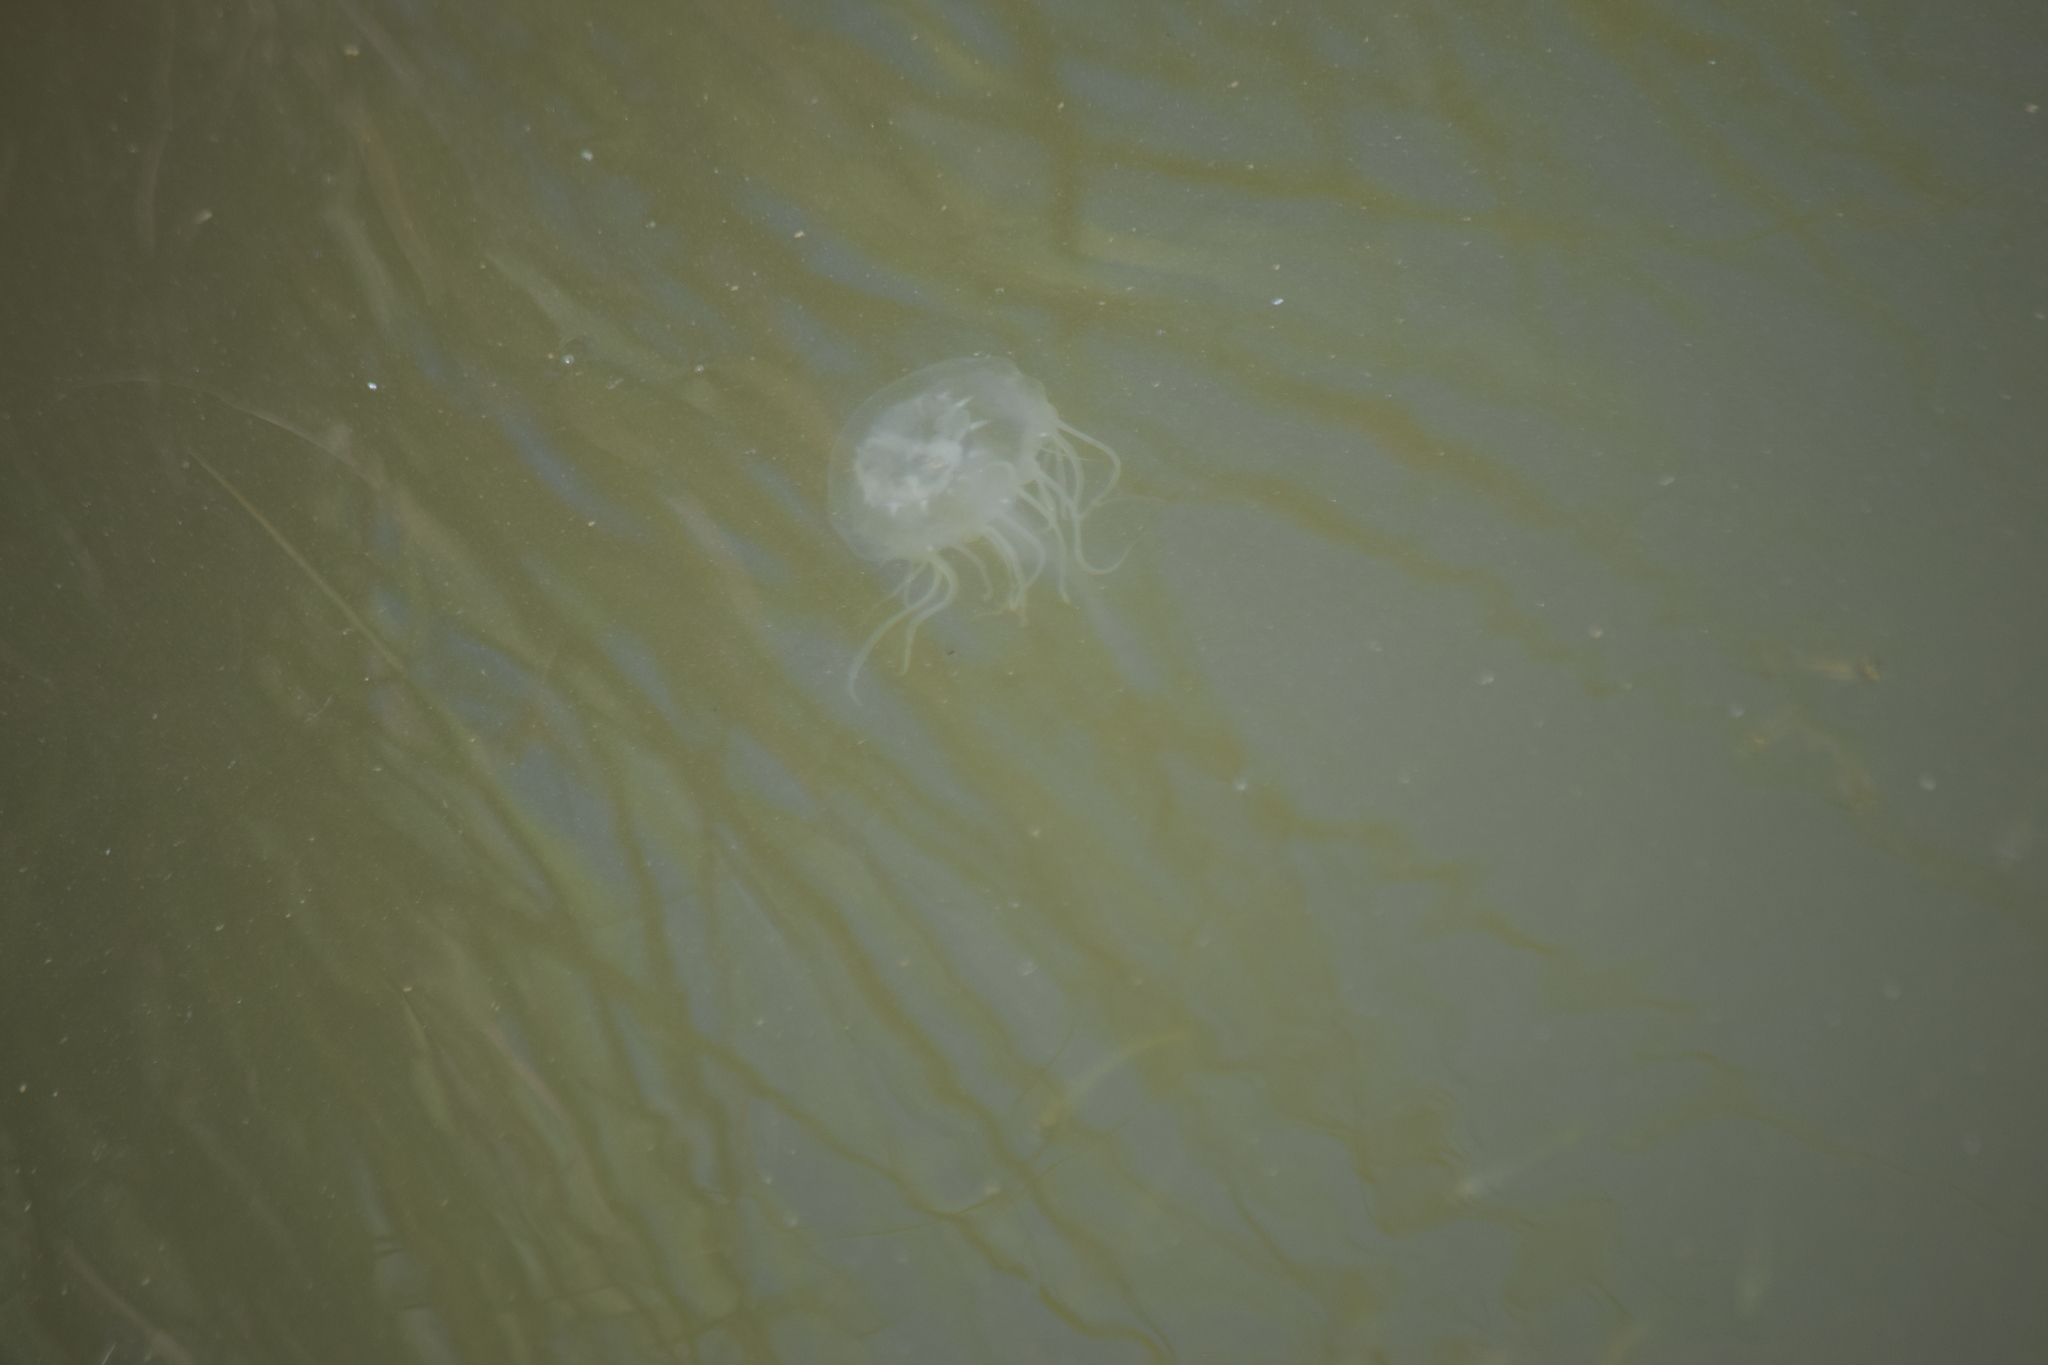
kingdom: Animalia
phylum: Cnidaria
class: Scyphozoa
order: Semaeostomeae
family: Pelagiidae
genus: Chrysaora
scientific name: Chrysaora chesapeakei
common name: Bay nettle
